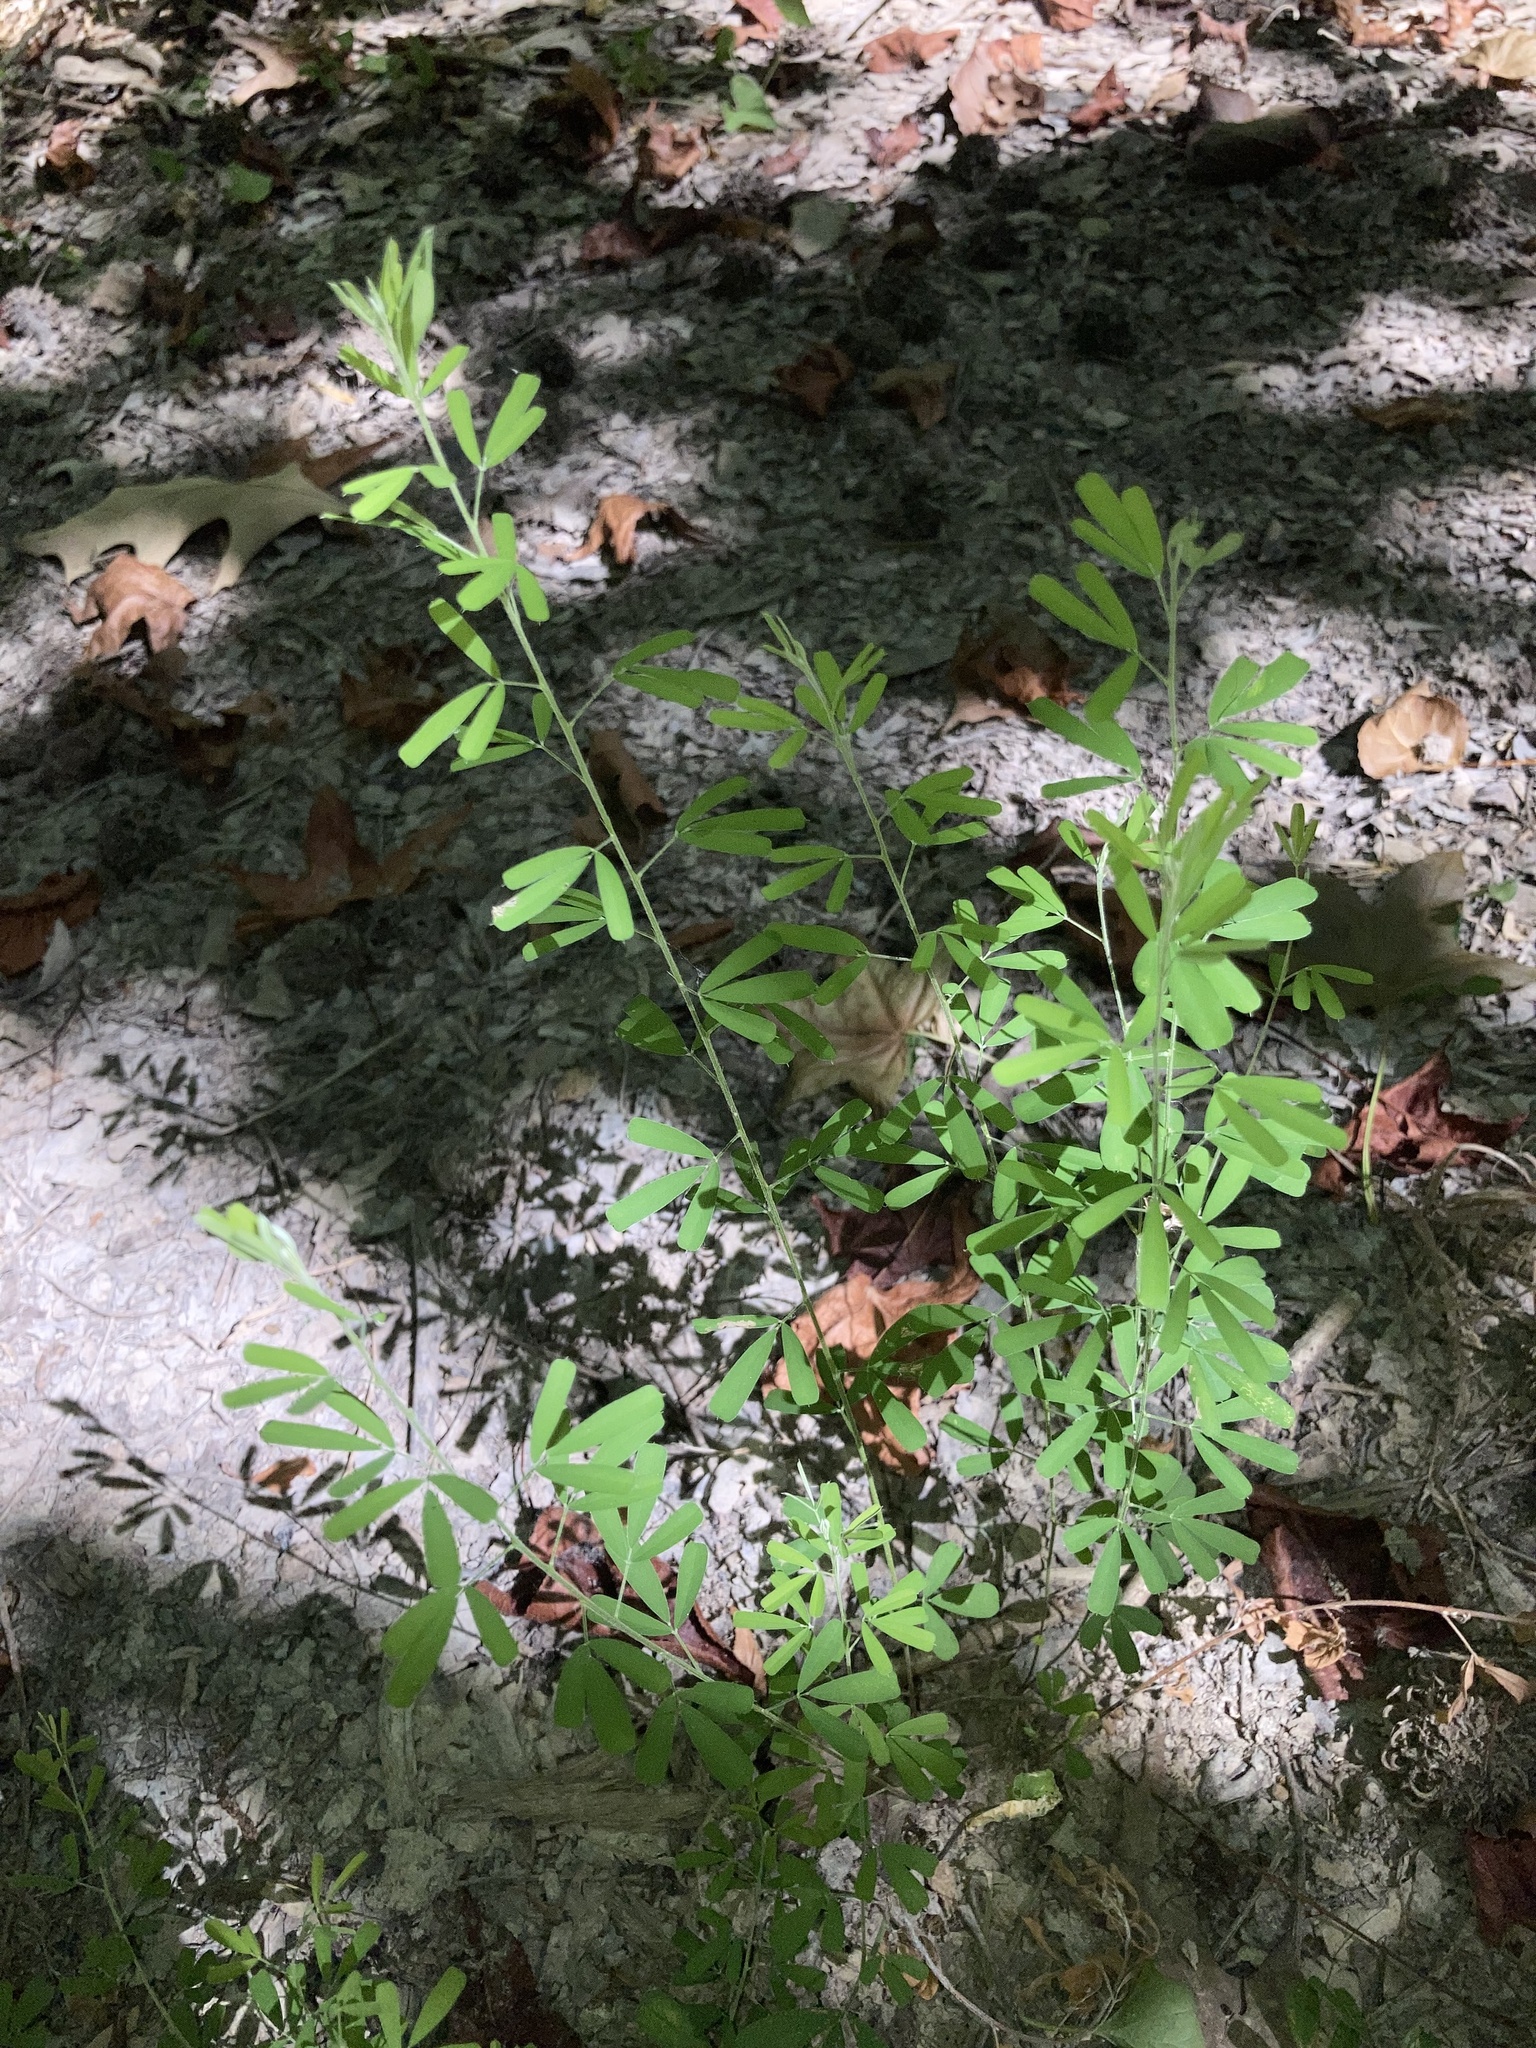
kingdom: Plantae
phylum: Tracheophyta
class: Magnoliopsida
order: Fabales
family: Fabaceae
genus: Lespedeza
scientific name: Lespedeza cuneata
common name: Chinese bush-clover
